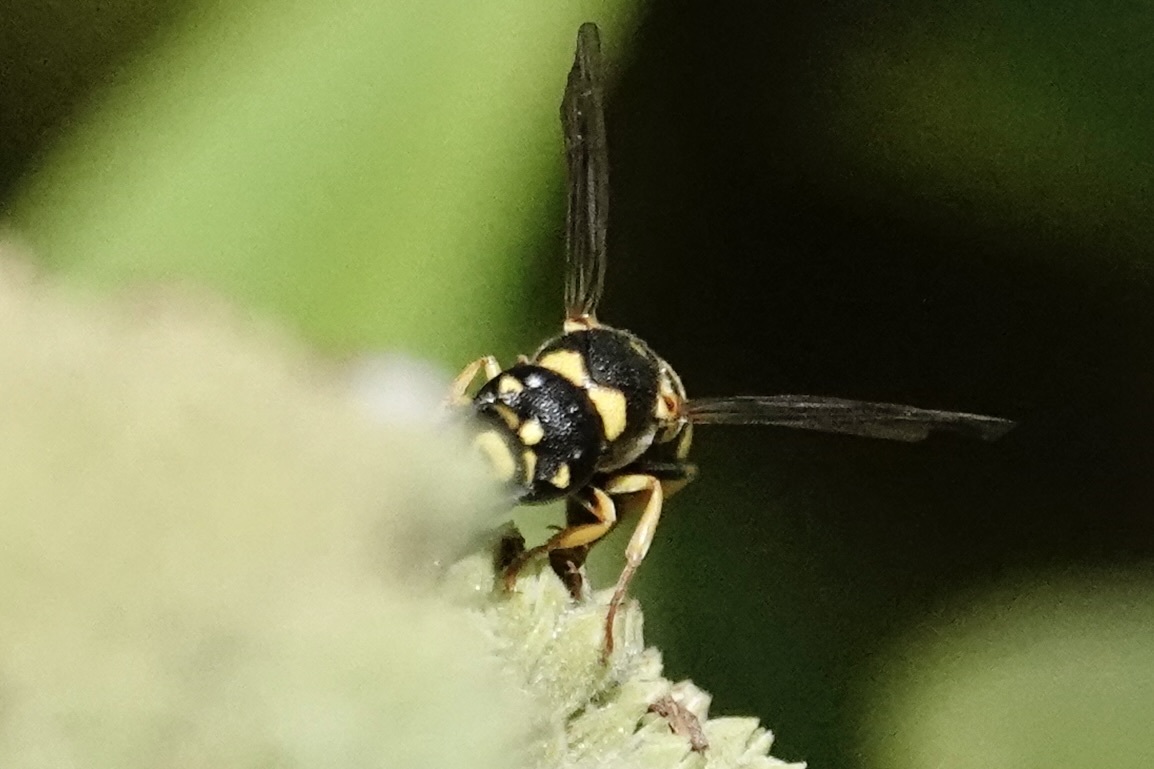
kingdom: Animalia
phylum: Arthropoda
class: Insecta
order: Hymenoptera
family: Eumenidae
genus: Parancistrocerus
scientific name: Parancistrocerus pedestris
